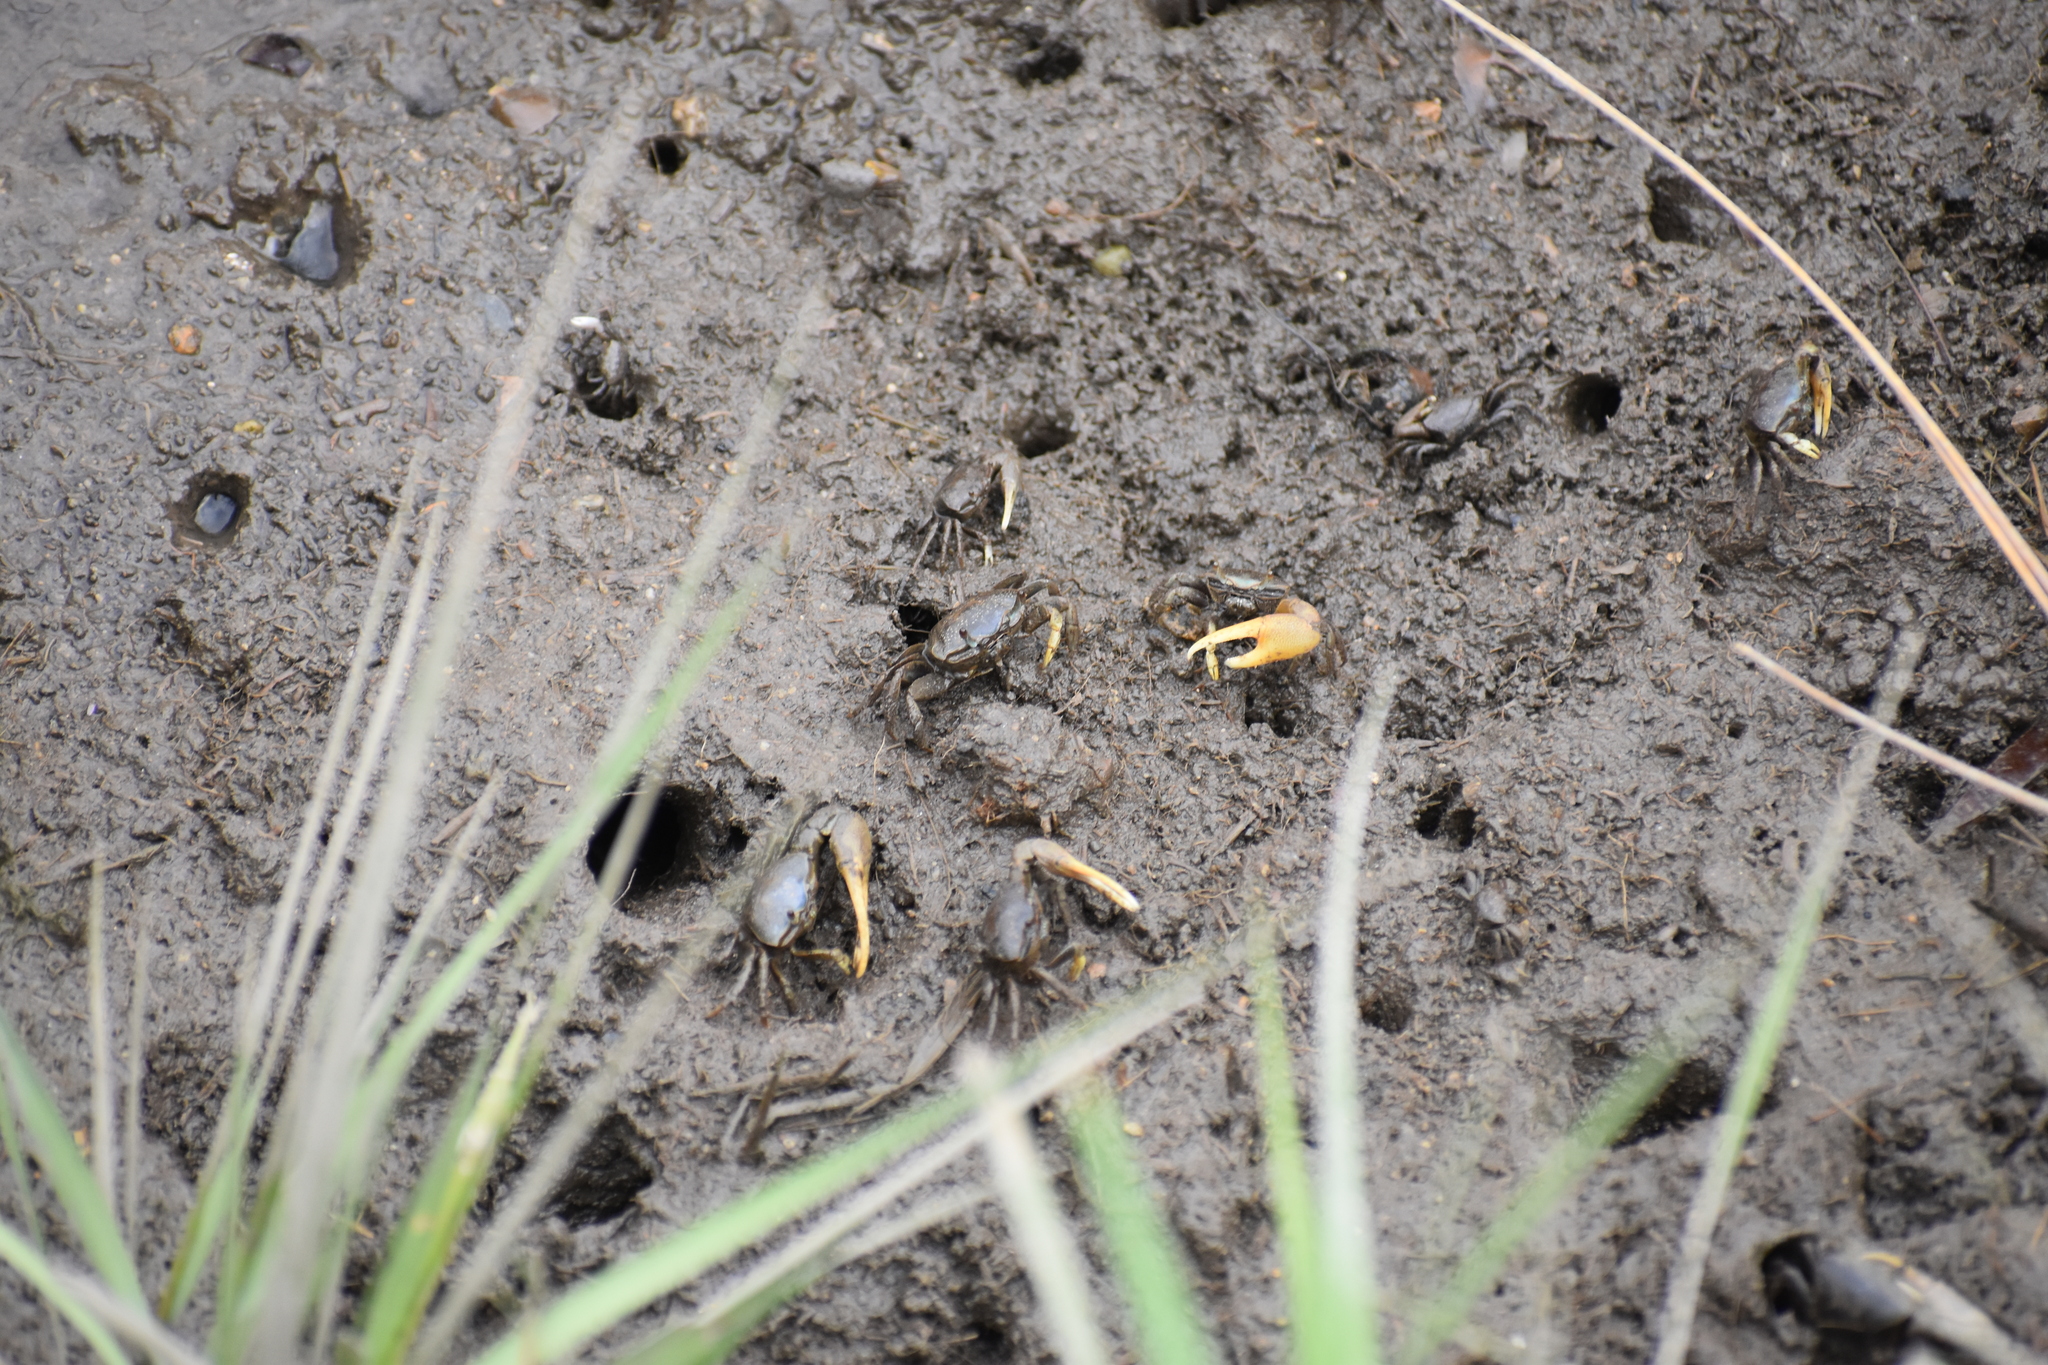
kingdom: Animalia
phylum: Arthropoda
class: Malacostraca
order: Decapoda
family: Ocypodidae
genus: Minuca
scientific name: Minuca pugnax
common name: Mud fiddler crab
